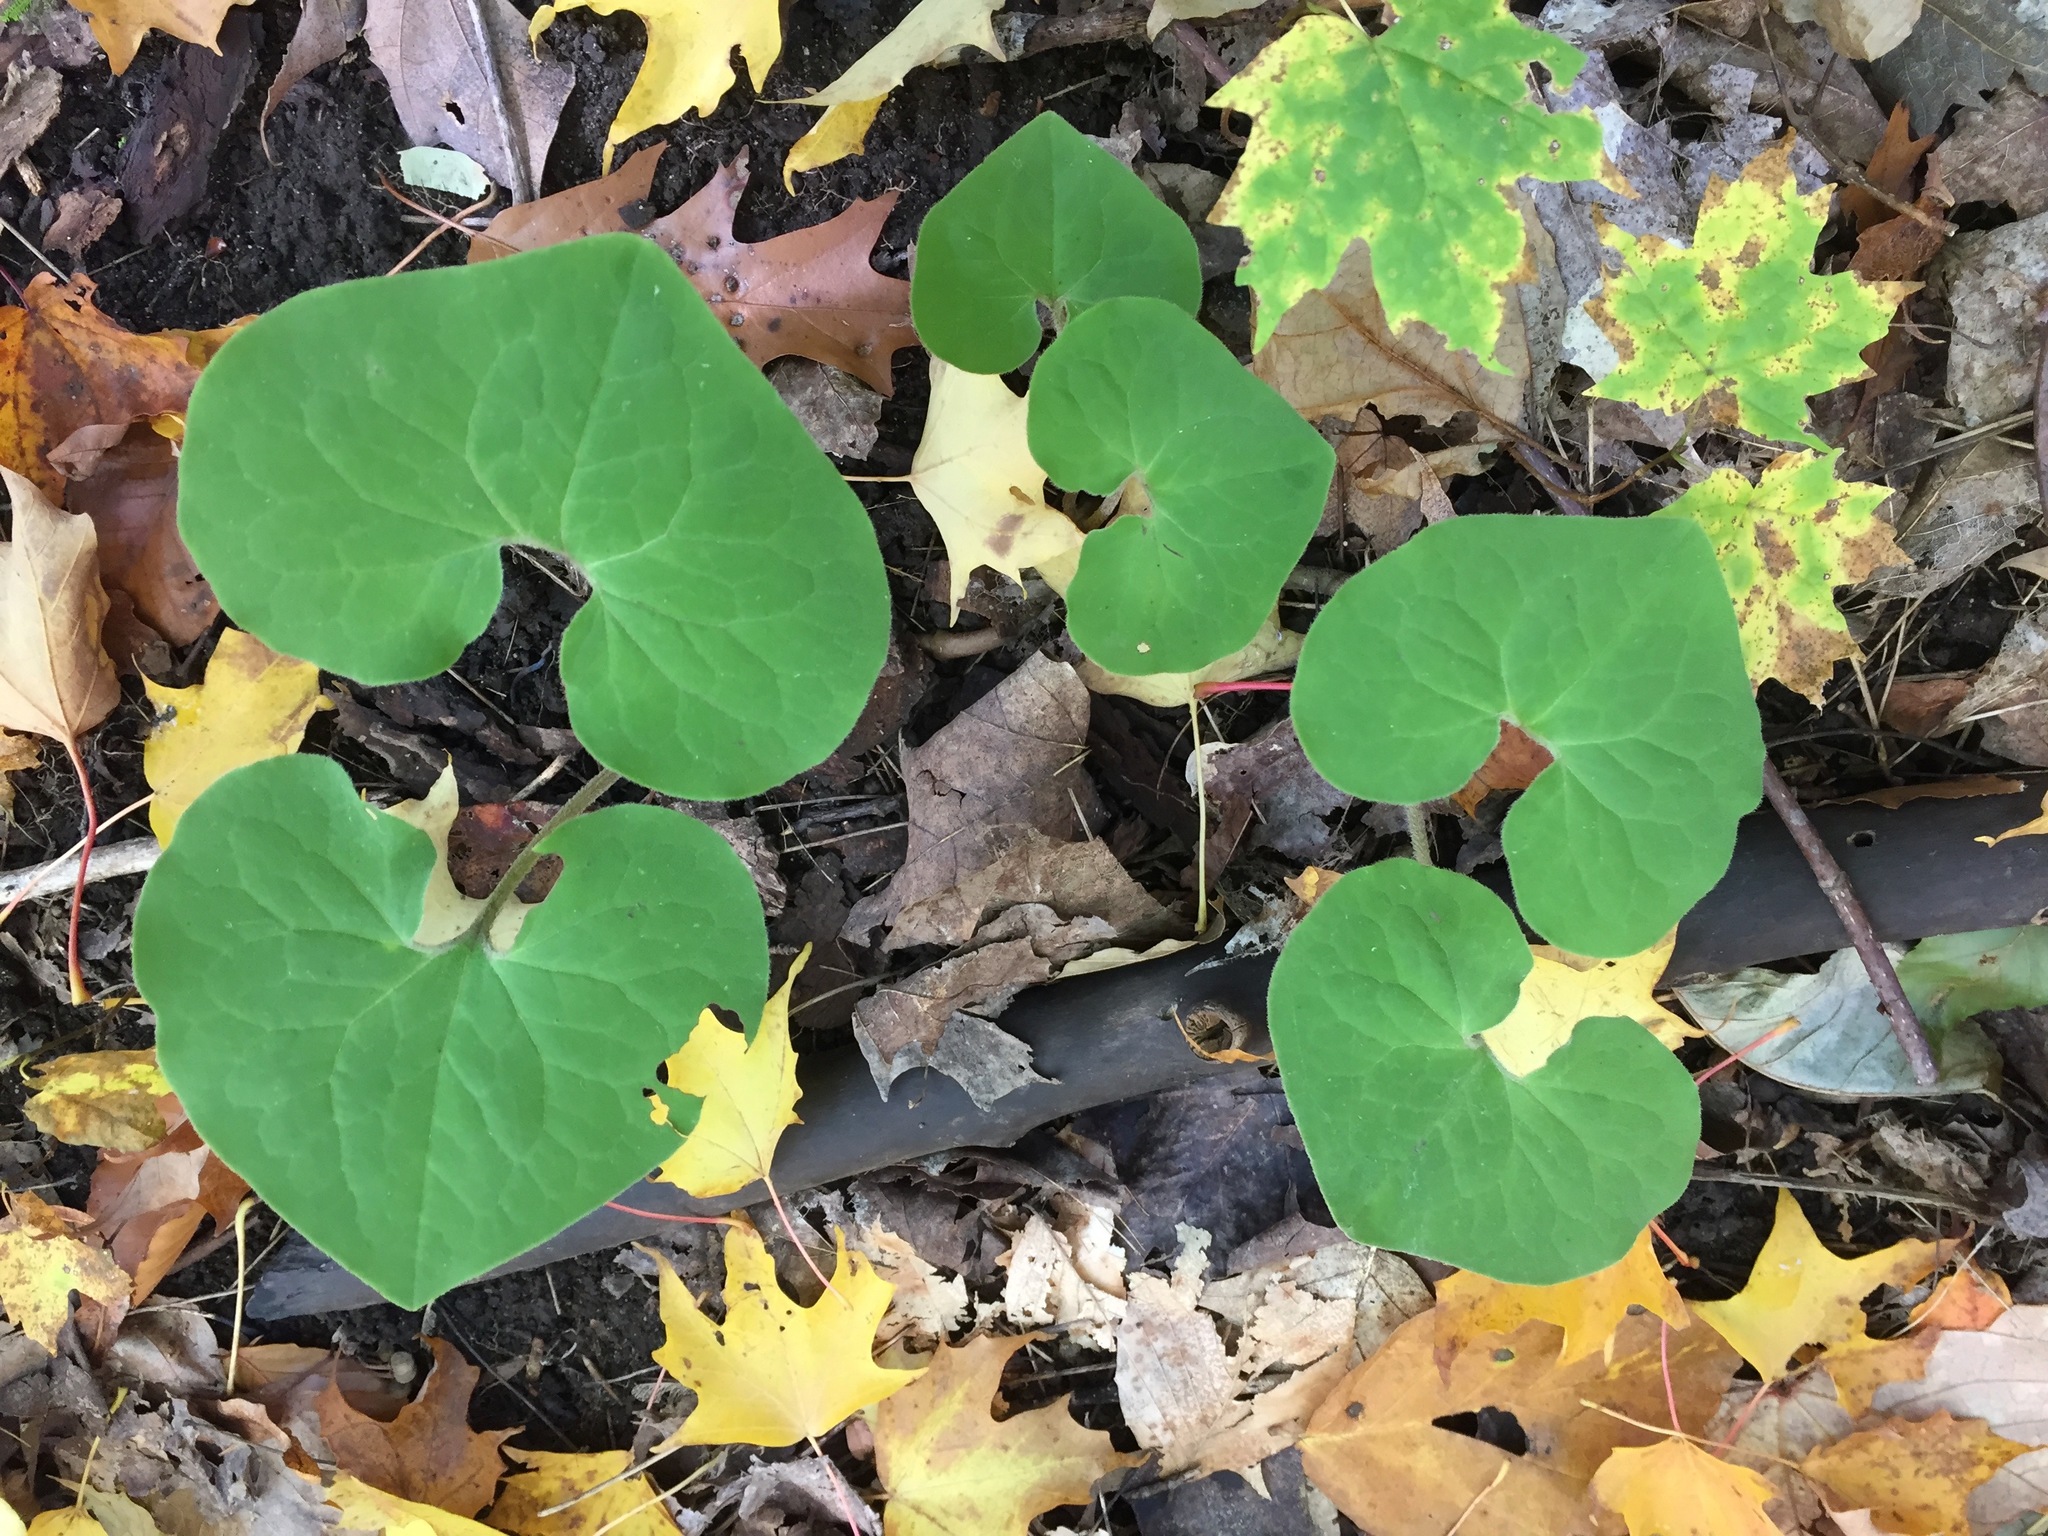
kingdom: Plantae
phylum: Tracheophyta
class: Magnoliopsida
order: Piperales
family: Aristolochiaceae
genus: Asarum
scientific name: Asarum canadense
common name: Wild ginger
